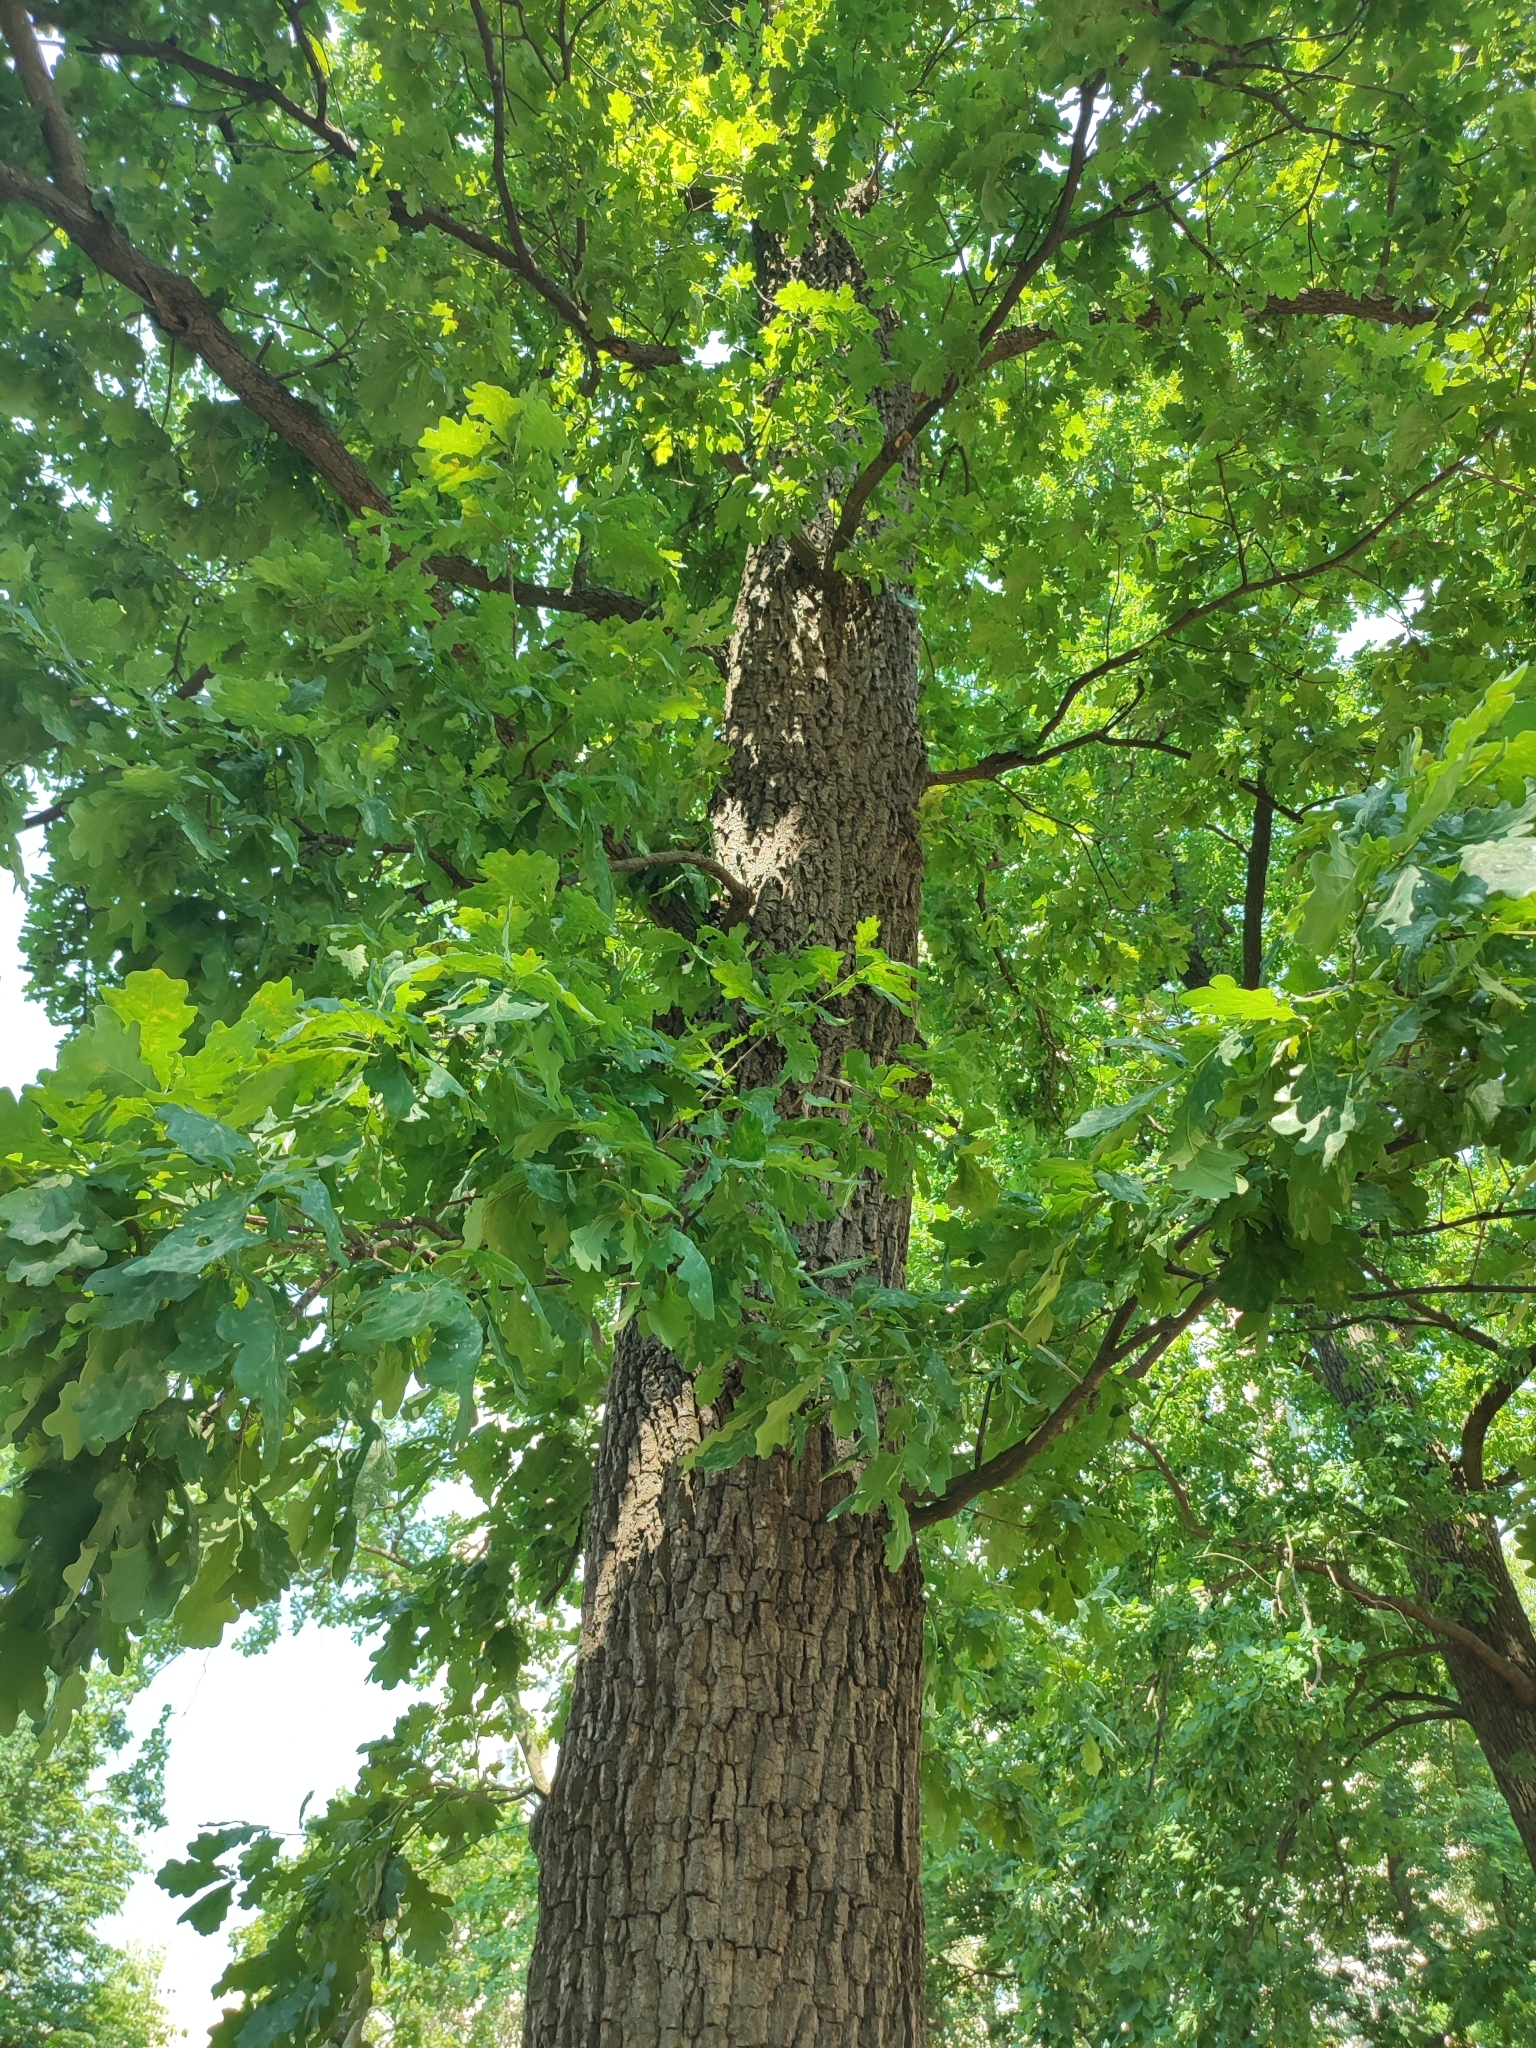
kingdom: Plantae
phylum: Tracheophyta
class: Magnoliopsida
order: Fagales
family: Fagaceae
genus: Quercus
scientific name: Quercus robur
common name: Pedunculate oak
